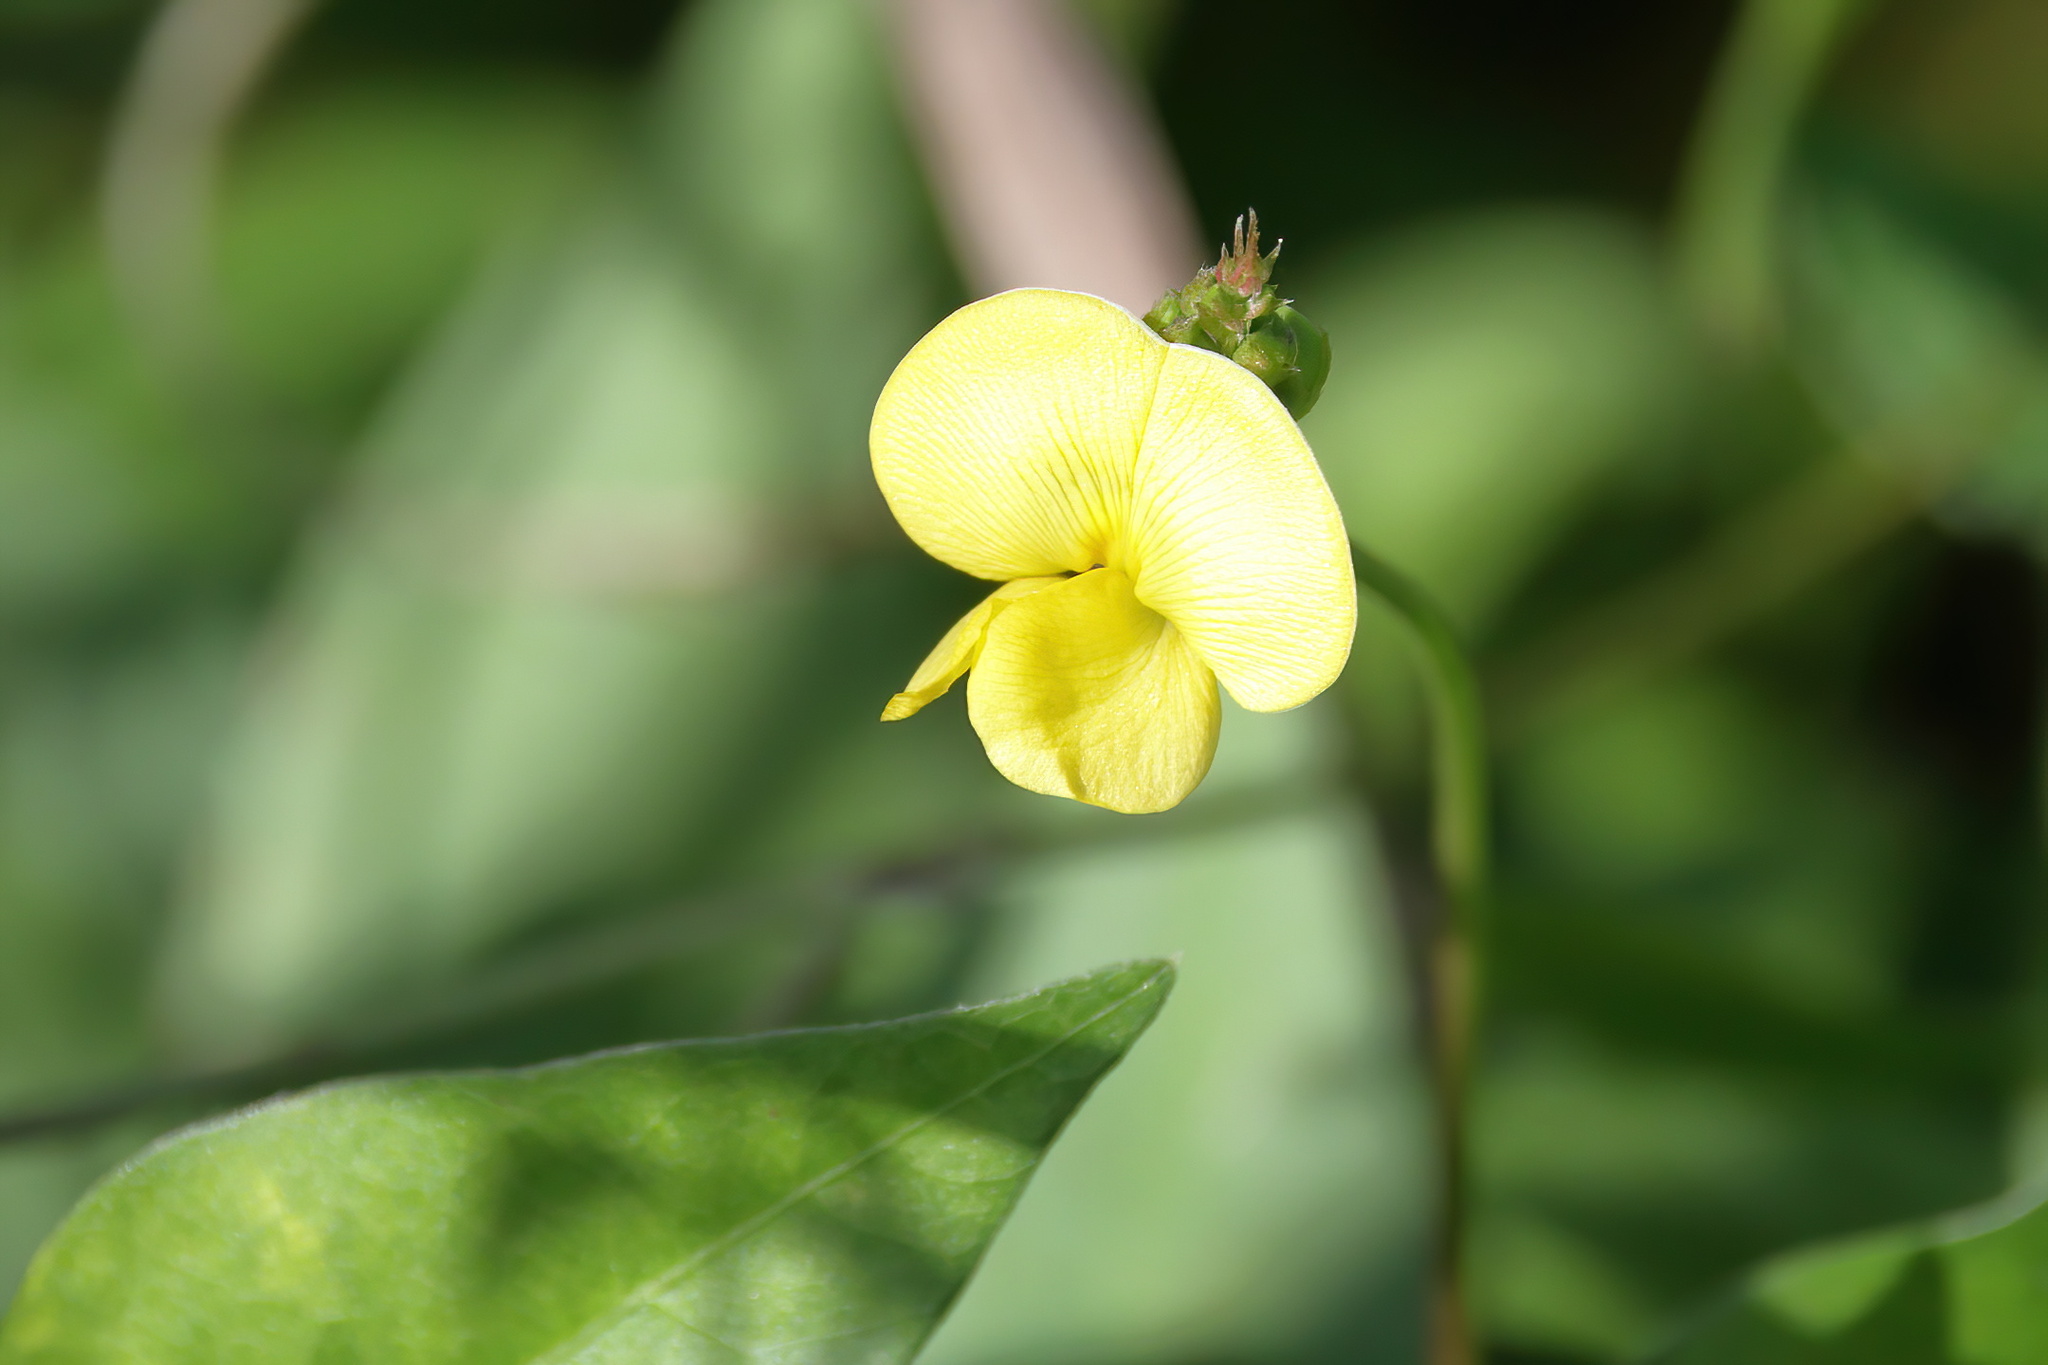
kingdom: Plantae
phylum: Tracheophyta
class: Magnoliopsida
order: Fabales
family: Fabaceae
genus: Vigna
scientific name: Vigna luteola
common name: Hairypod cowpea
